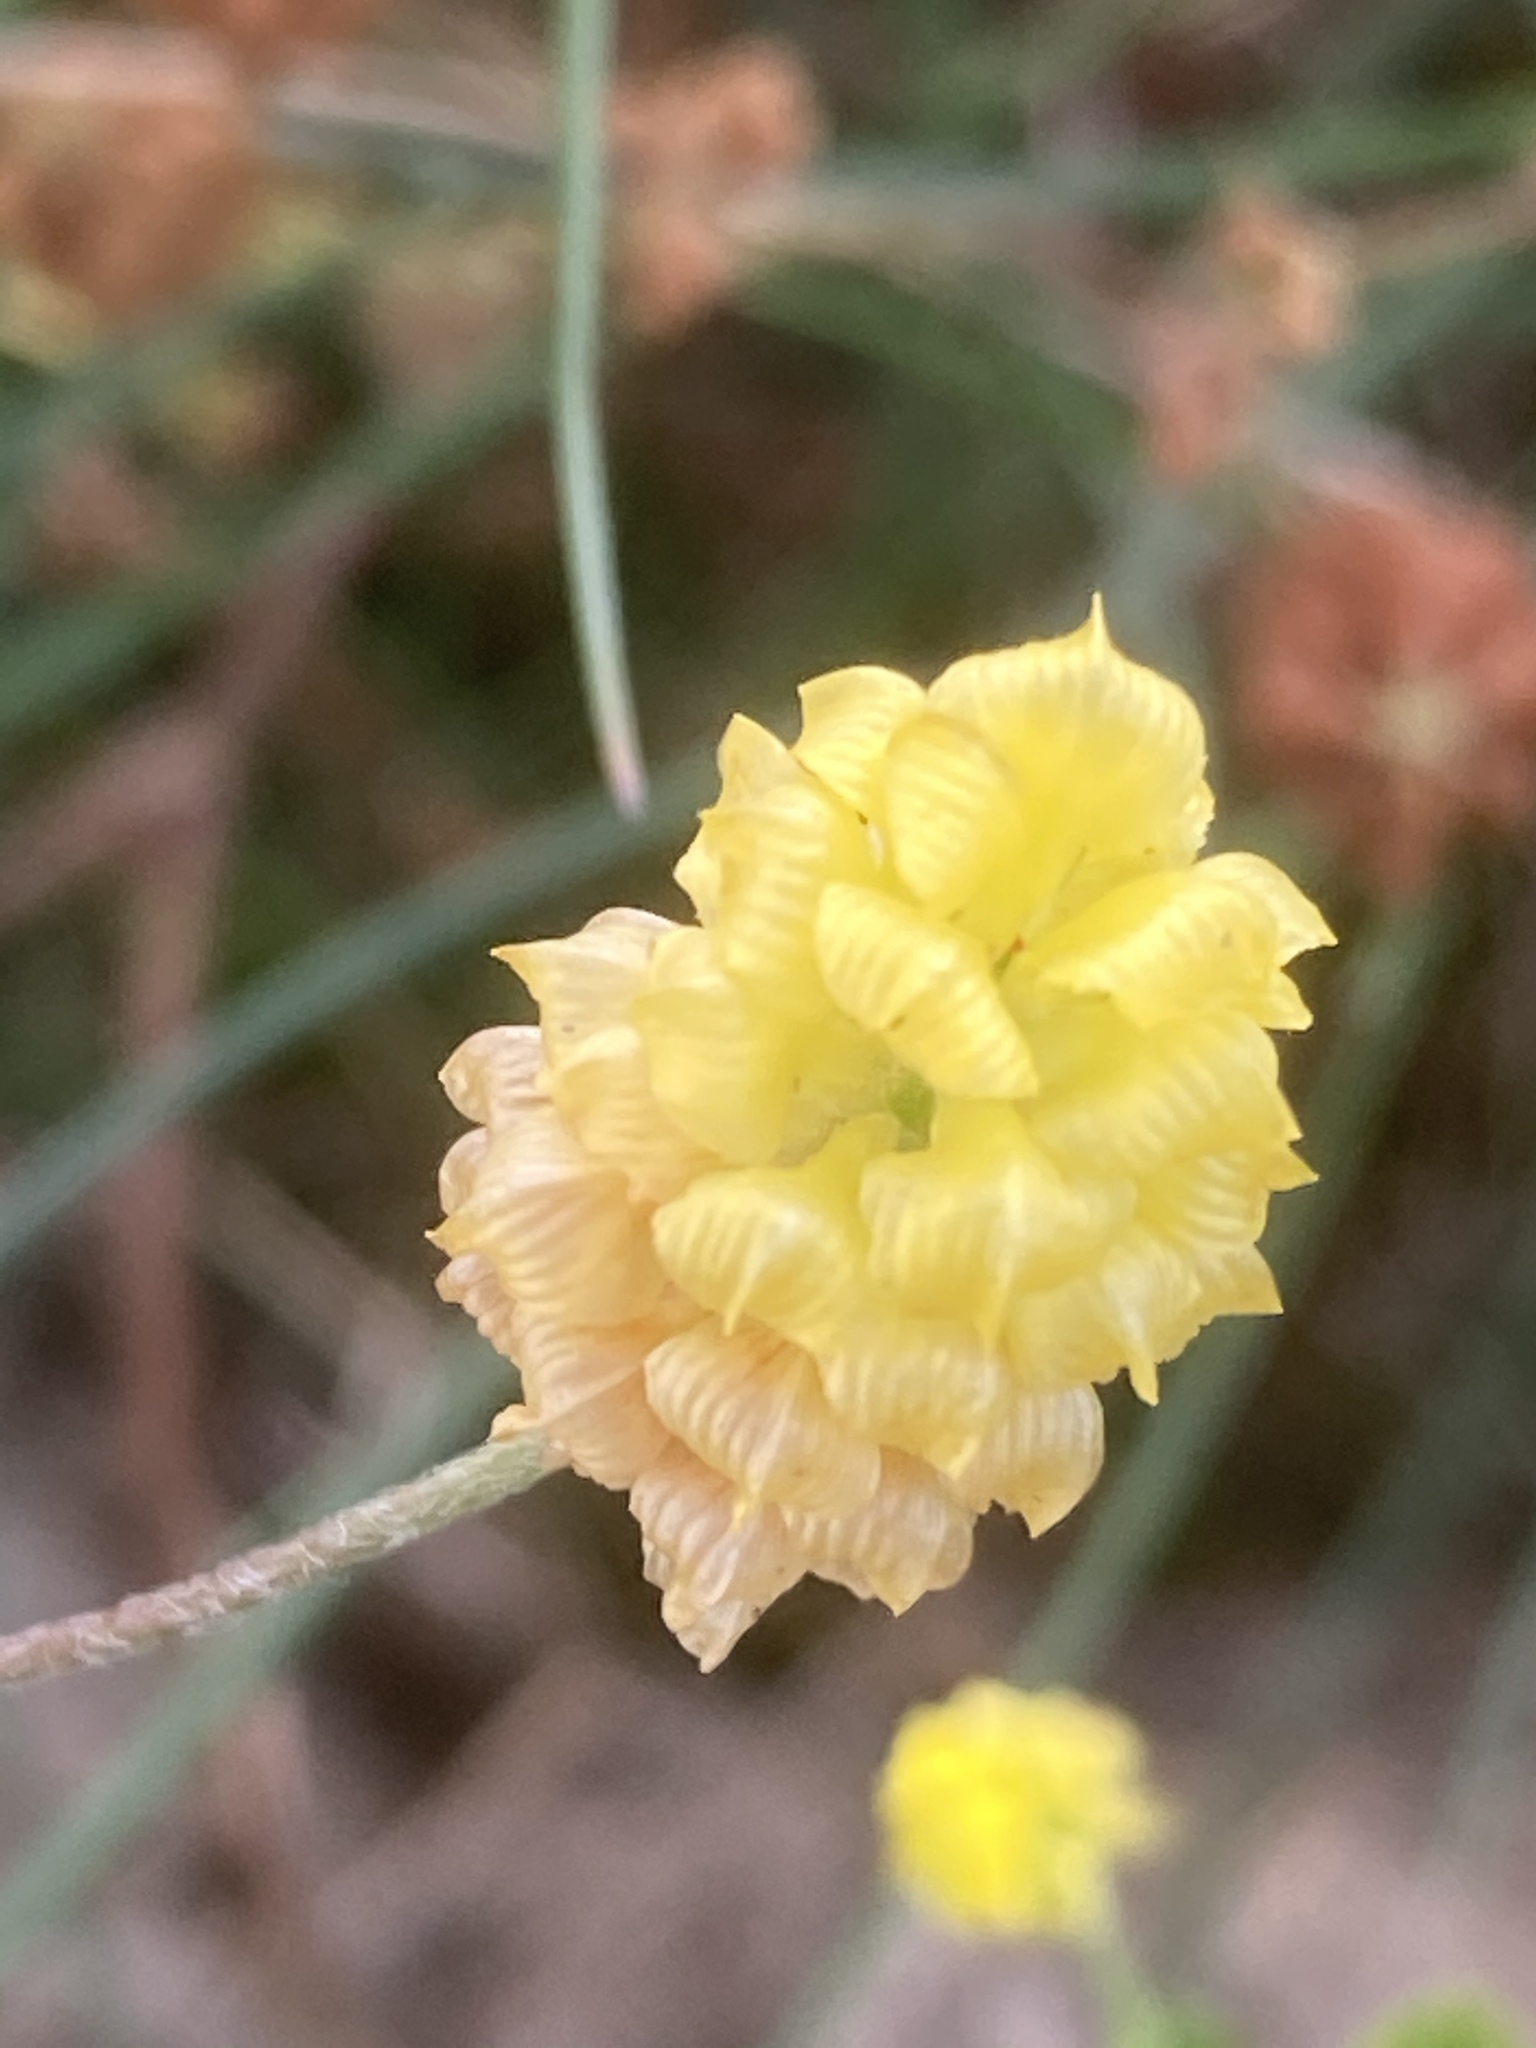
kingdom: Plantae
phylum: Tracheophyta
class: Magnoliopsida
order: Fabales
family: Fabaceae
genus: Trifolium
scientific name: Trifolium campestre
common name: Field clover
